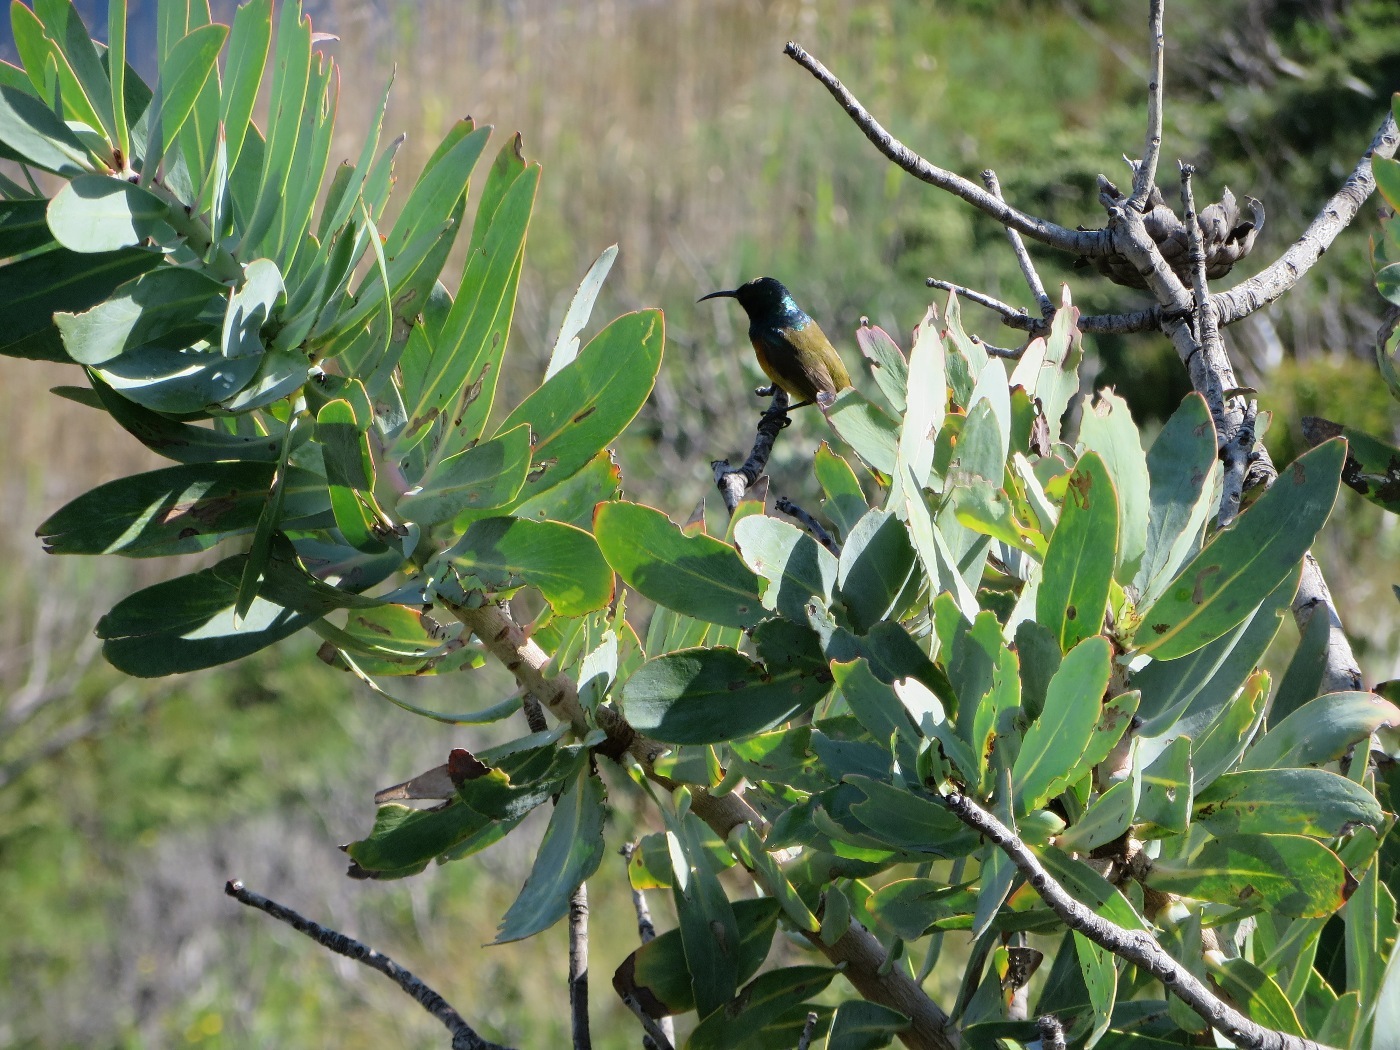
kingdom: Animalia
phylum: Chordata
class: Aves
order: Passeriformes
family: Nectariniidae
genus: Anthobaphes
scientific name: Anthobaphes violacea
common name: Orange-breasted sunbird
